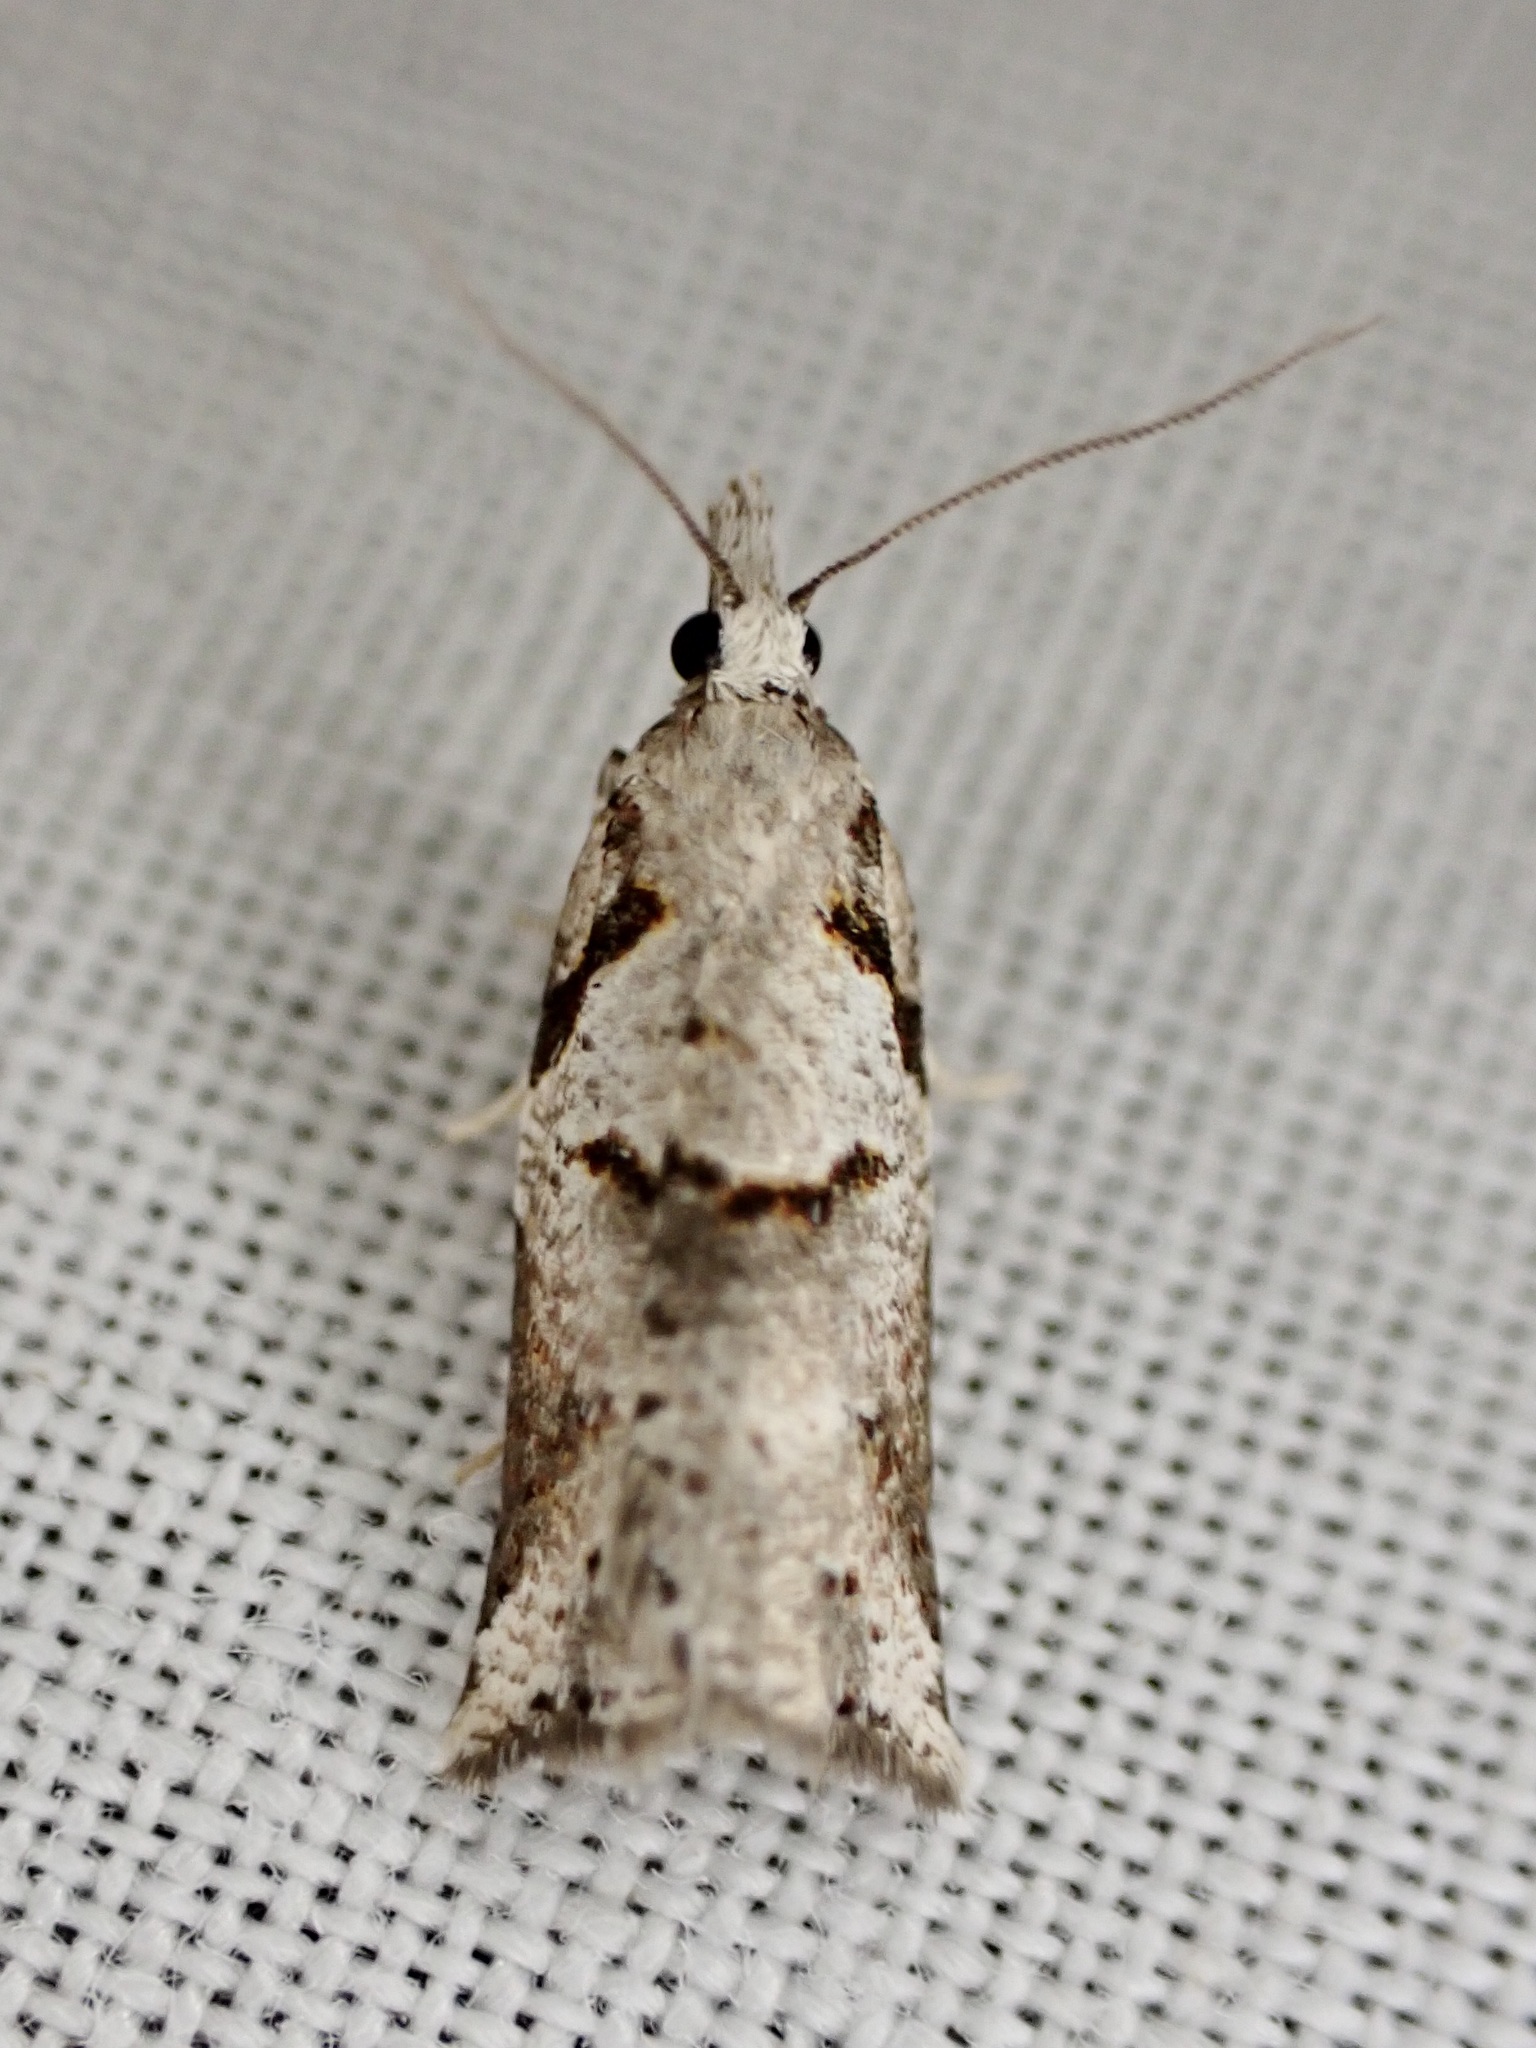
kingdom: Animalia
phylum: Arthropoda
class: Insecta
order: Lepidoptera
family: Tortricidae
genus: Harmologa
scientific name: Harmologa amplexana
